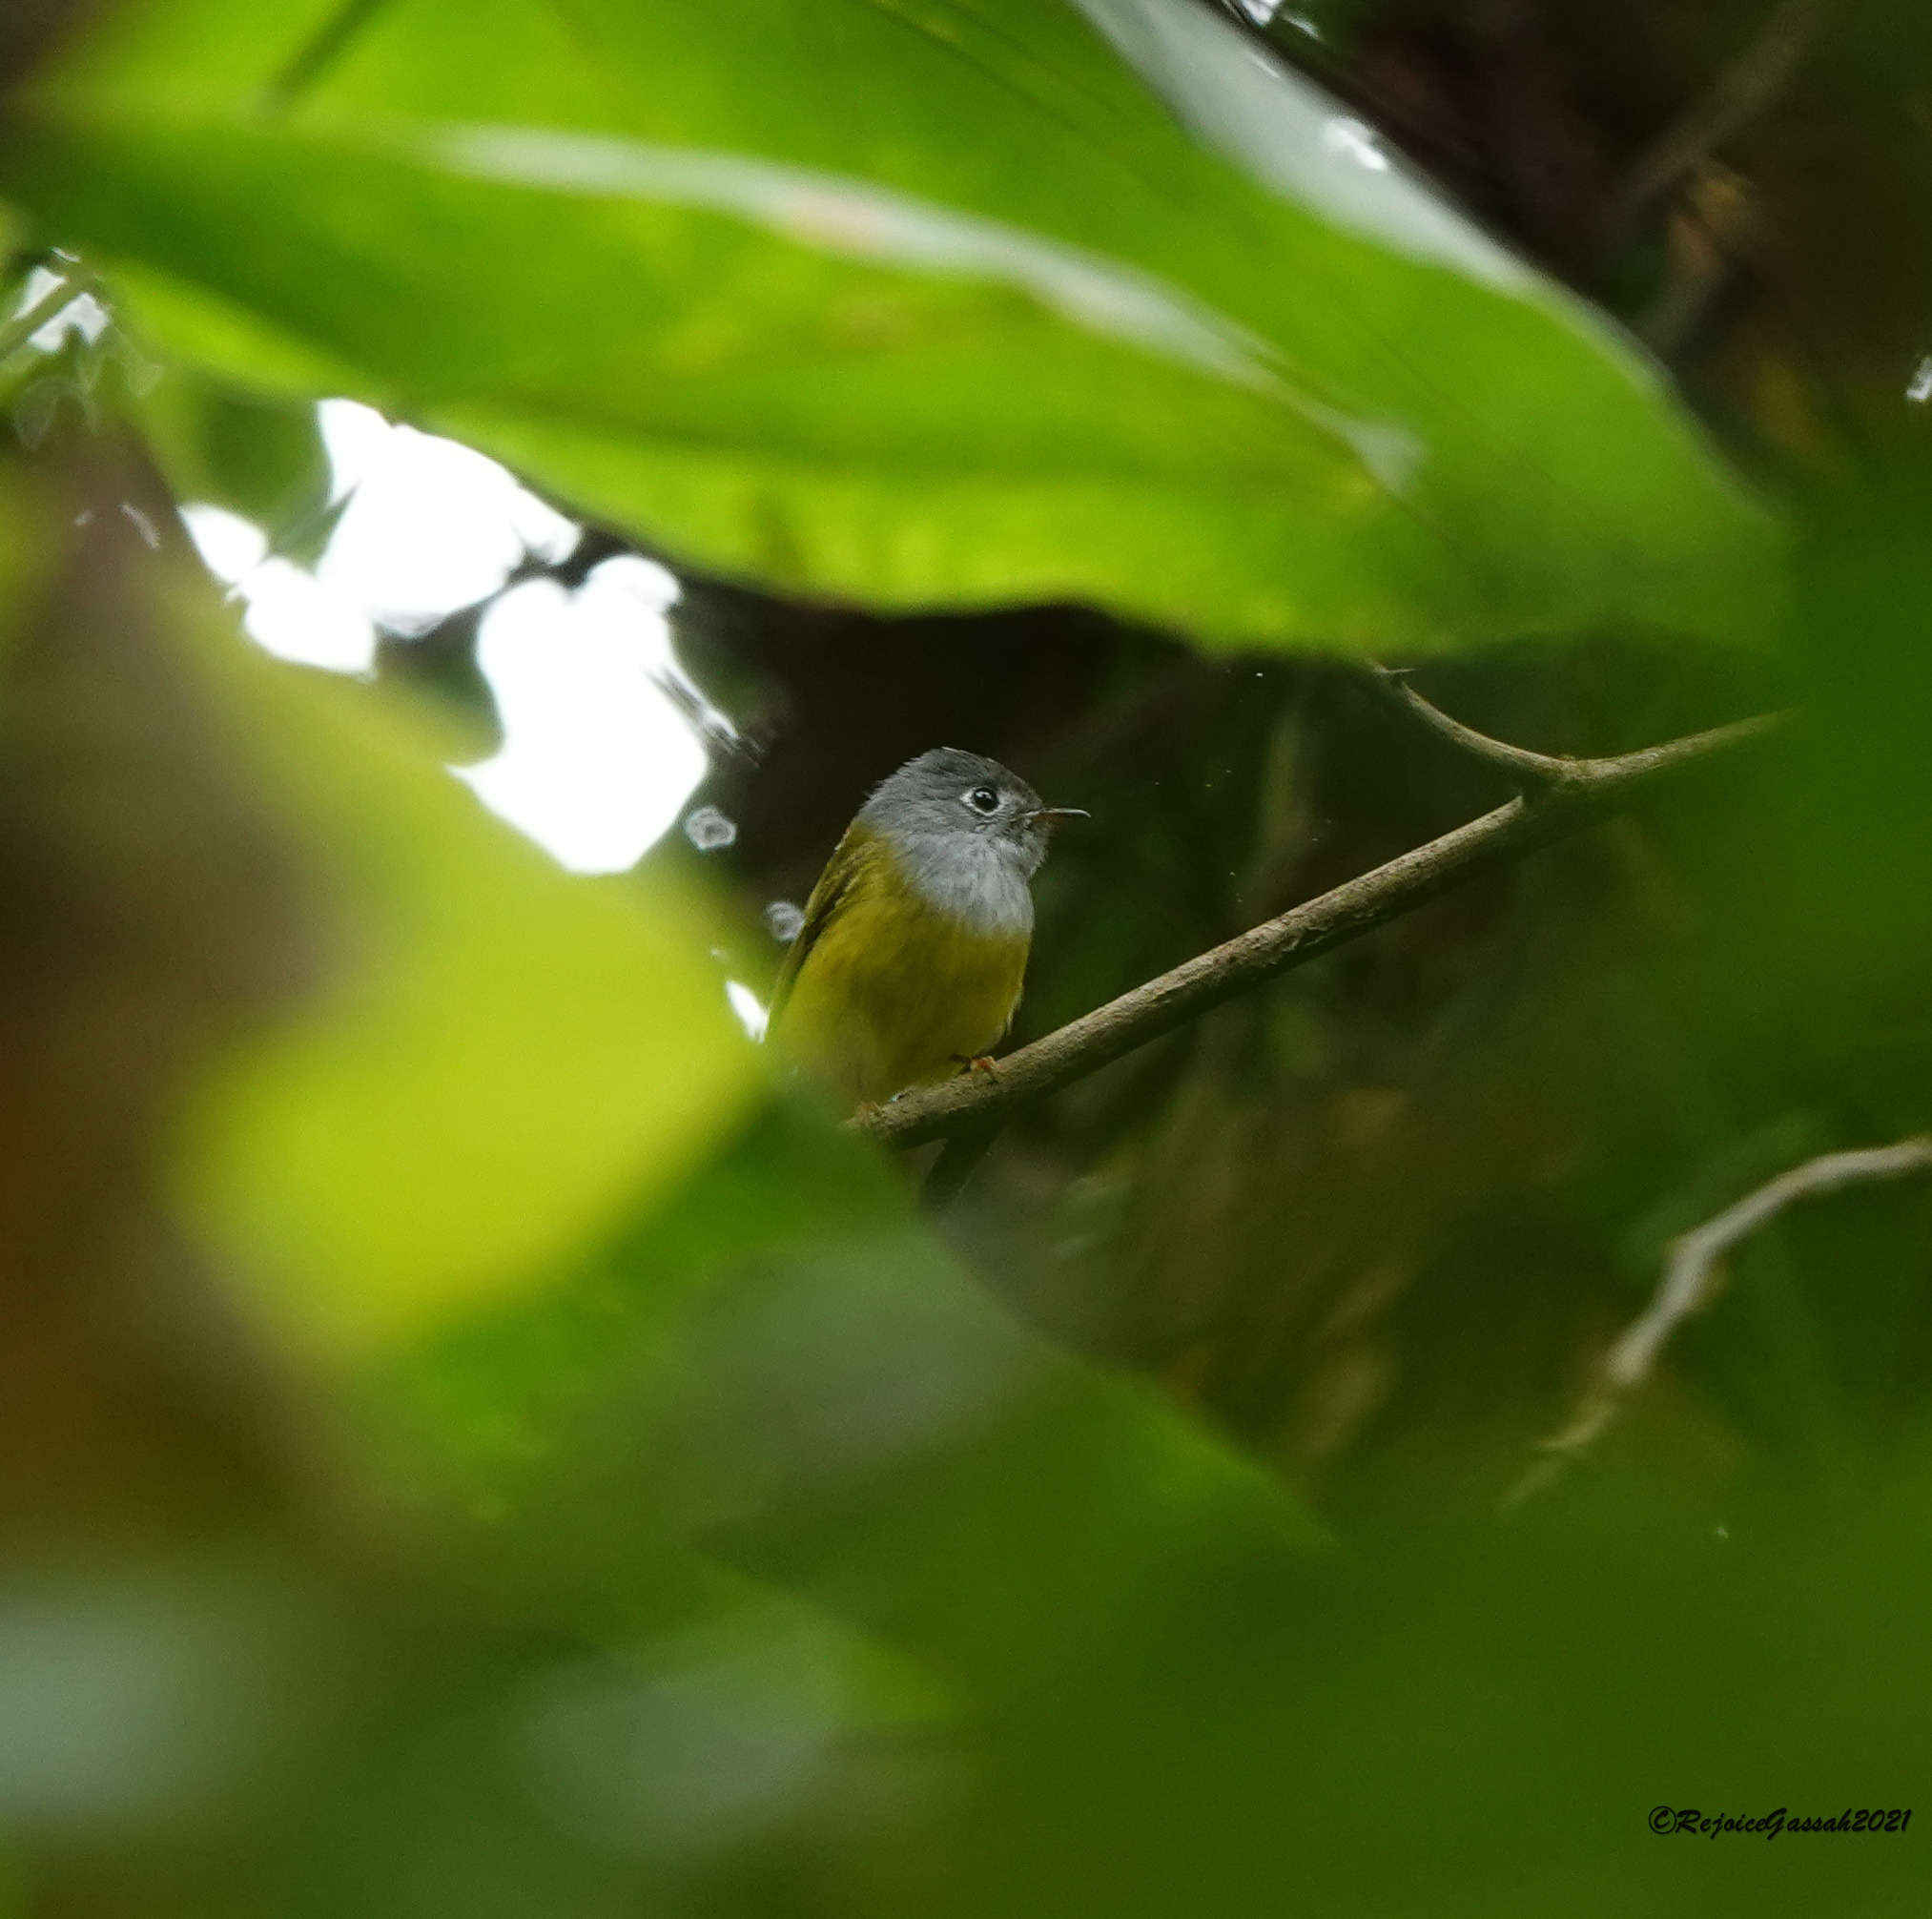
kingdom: Animalia
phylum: Chordata
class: Aves
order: Passeriformes
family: Stenostiridae
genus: Culicicapa
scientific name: Culicicapa ceylonensis
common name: Grey-headed canary-flycatcher
